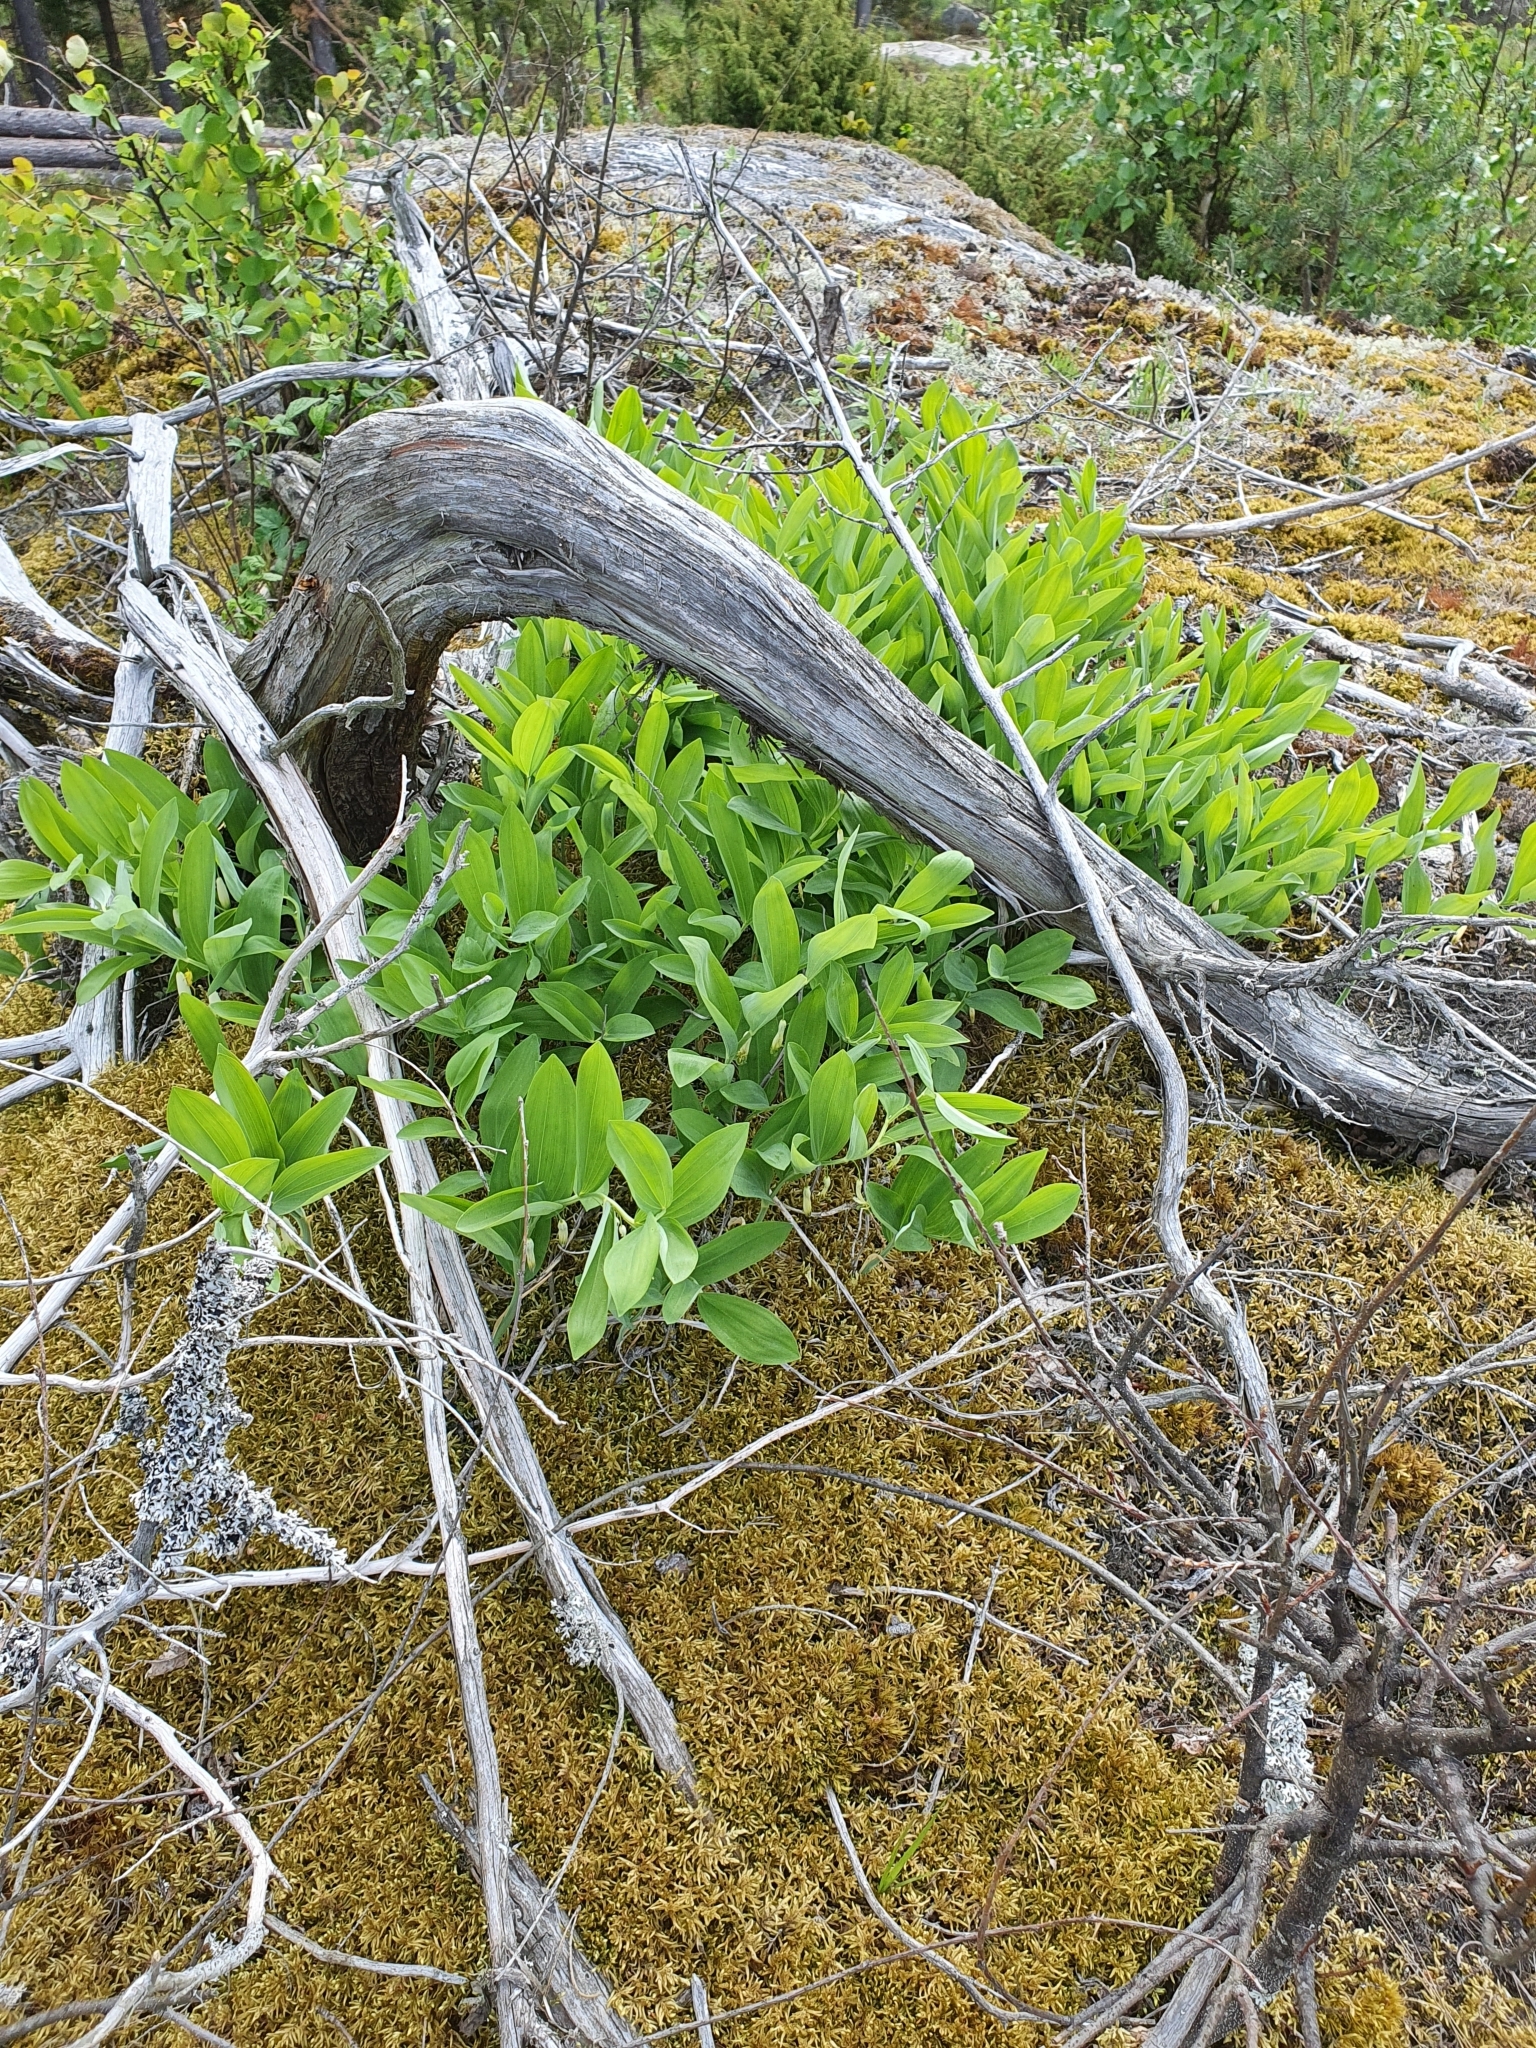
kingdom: Plantae
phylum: Tracheophyta
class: Liliopsida
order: Asparagales
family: Asparagaceae
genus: Polygonatum
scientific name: Polygonatum odoratum
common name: Angular solomon's-seal
